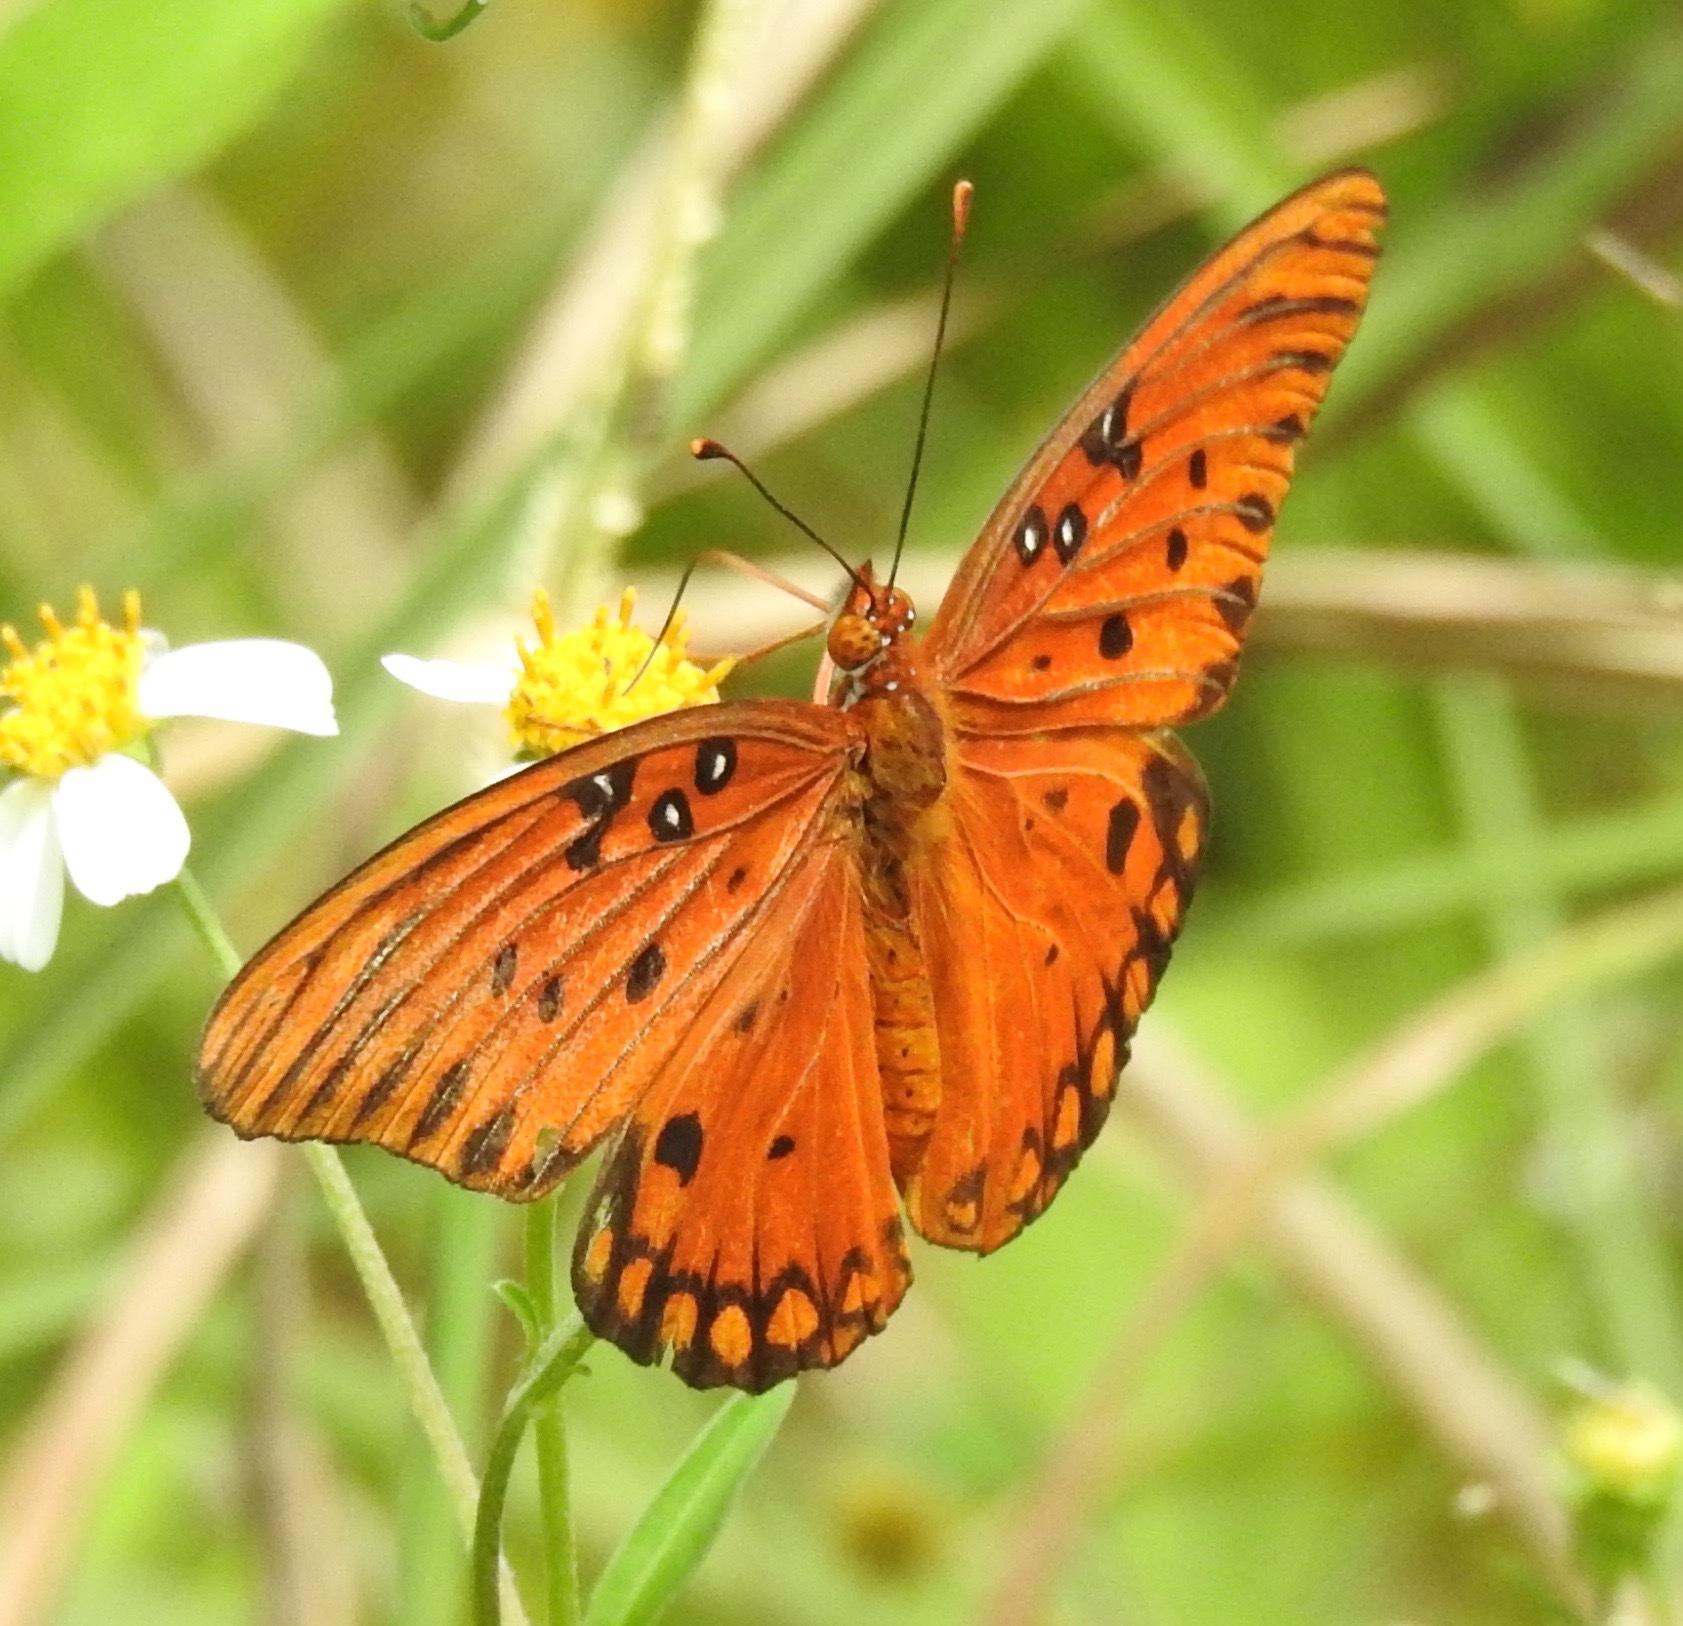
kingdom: Animalia
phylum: Arthropoda
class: Insecta
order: Lepidoptera
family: Nymphalidae
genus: Dione
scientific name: Dione vanillae
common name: Gulf fritillary
